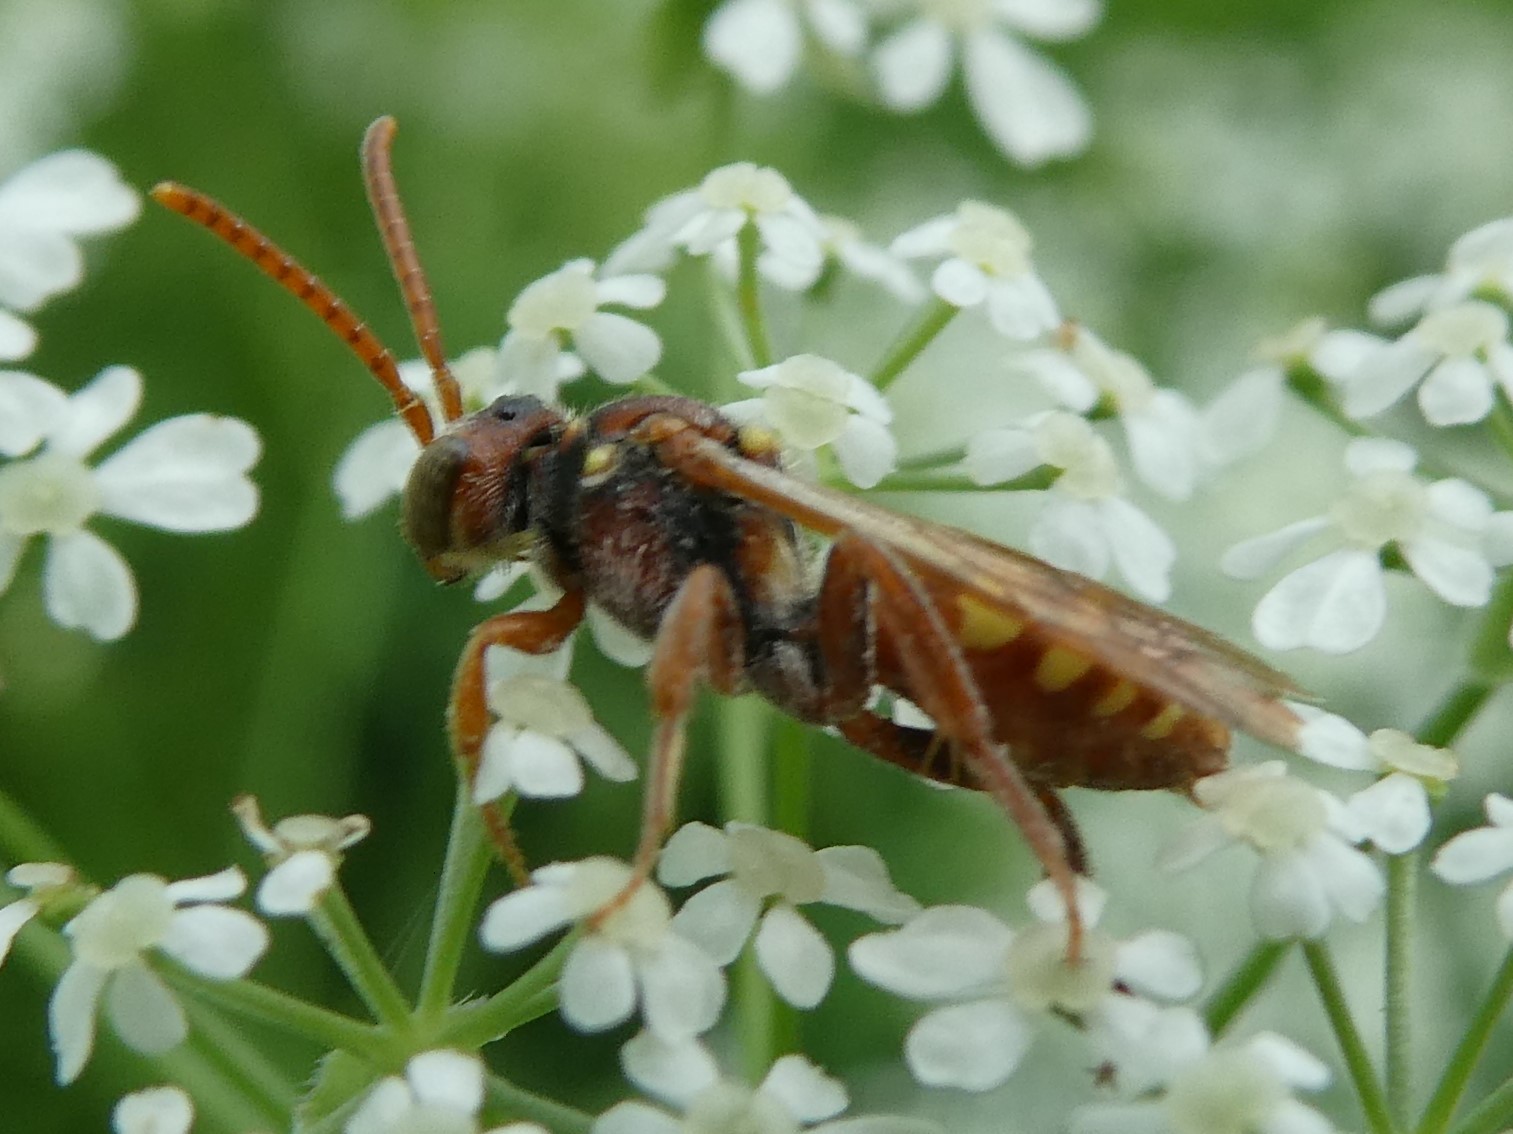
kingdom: Animalia
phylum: Arthropoda
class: Insecta
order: Hymenoptera
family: Apidae
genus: Nomada
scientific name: Nomada imbricata
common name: Imbricate cuckoo nomad bee
